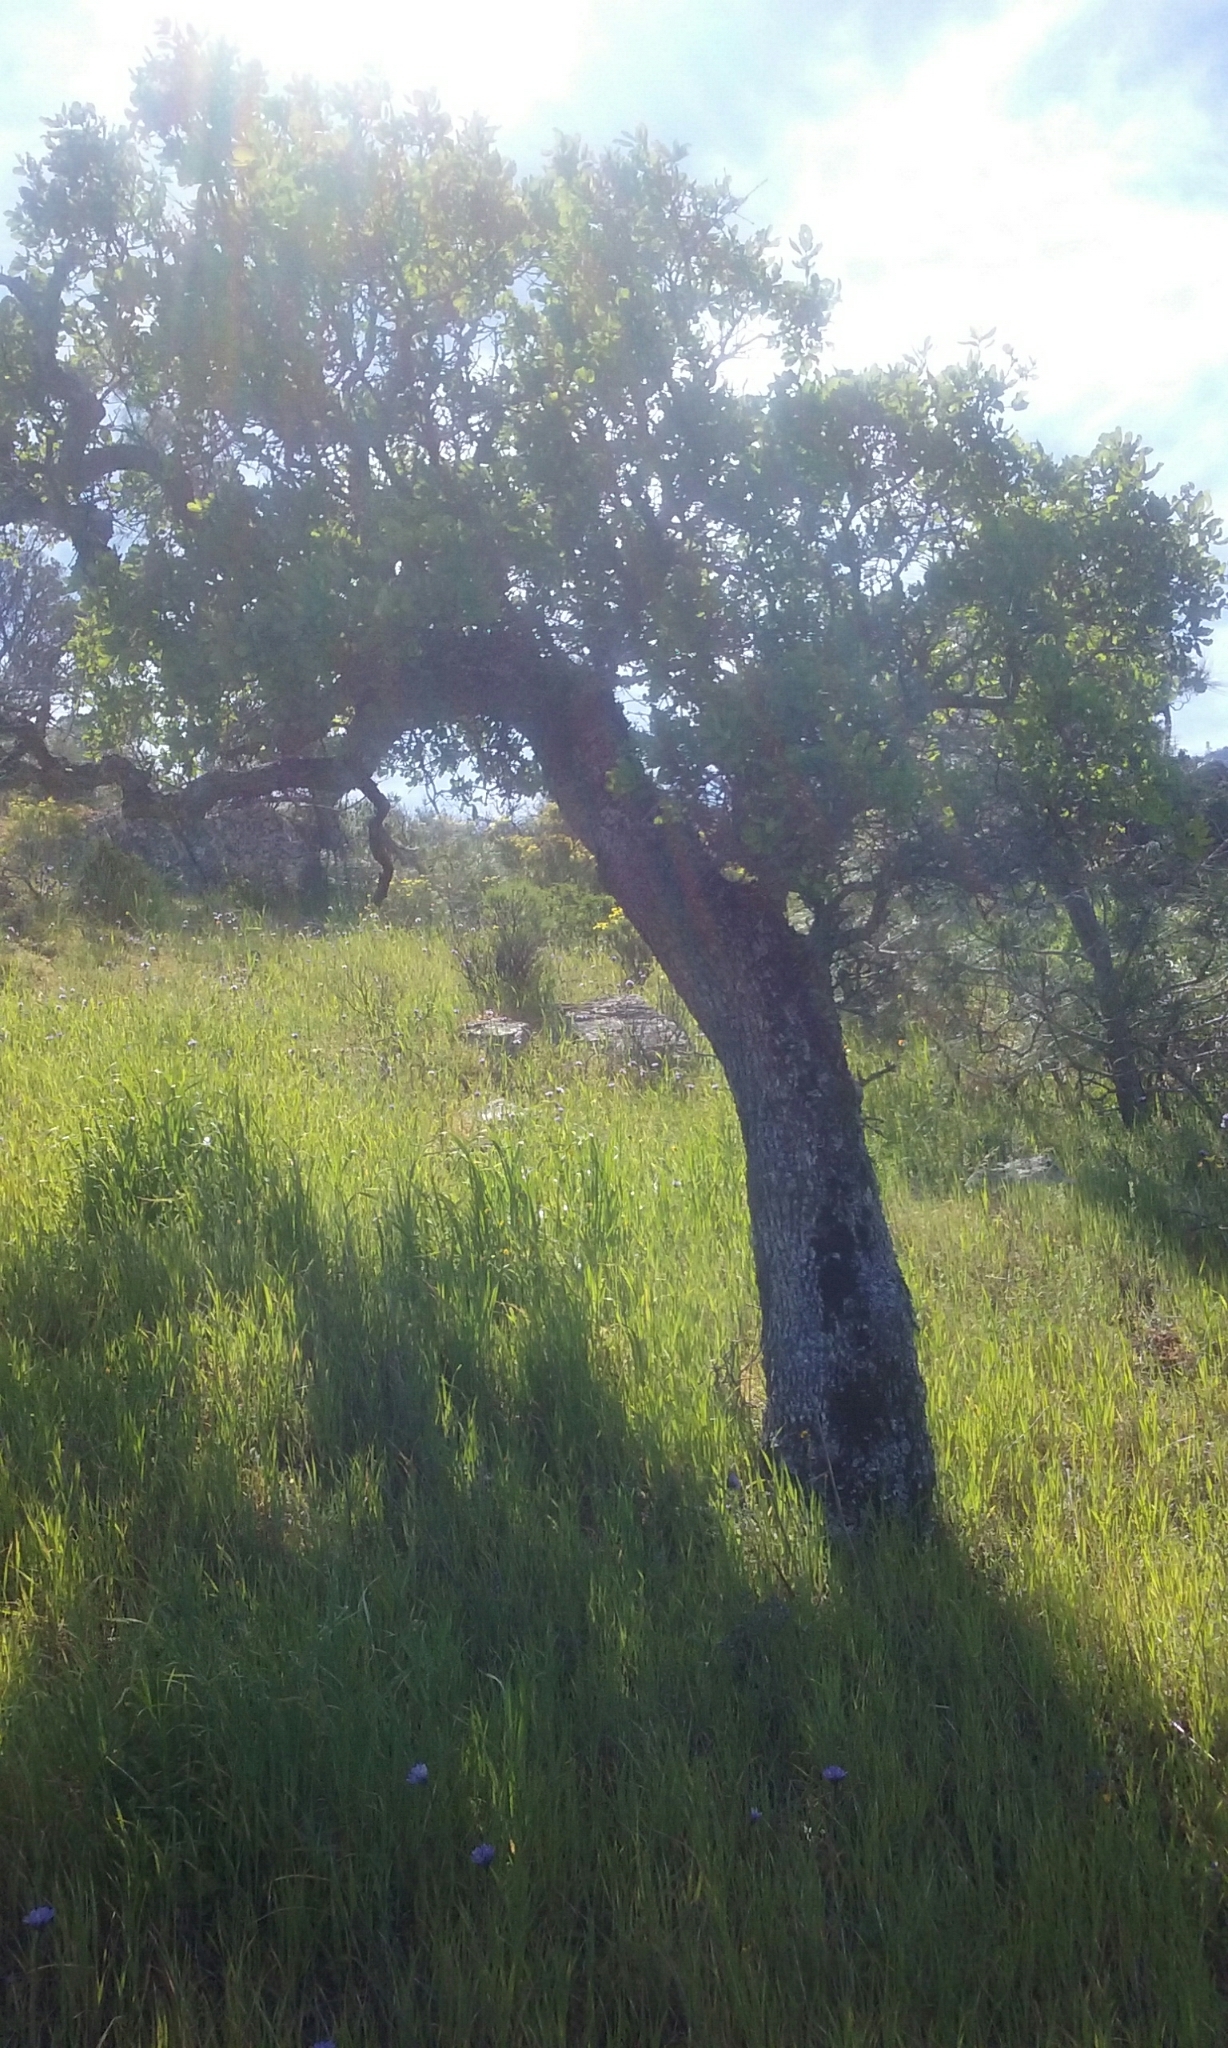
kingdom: Plantae
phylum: Tracheophyta
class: Magnoliopsida
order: Fagales
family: Fagaceae
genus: Quercus
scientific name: Quercus douglasii
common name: Blue oak
